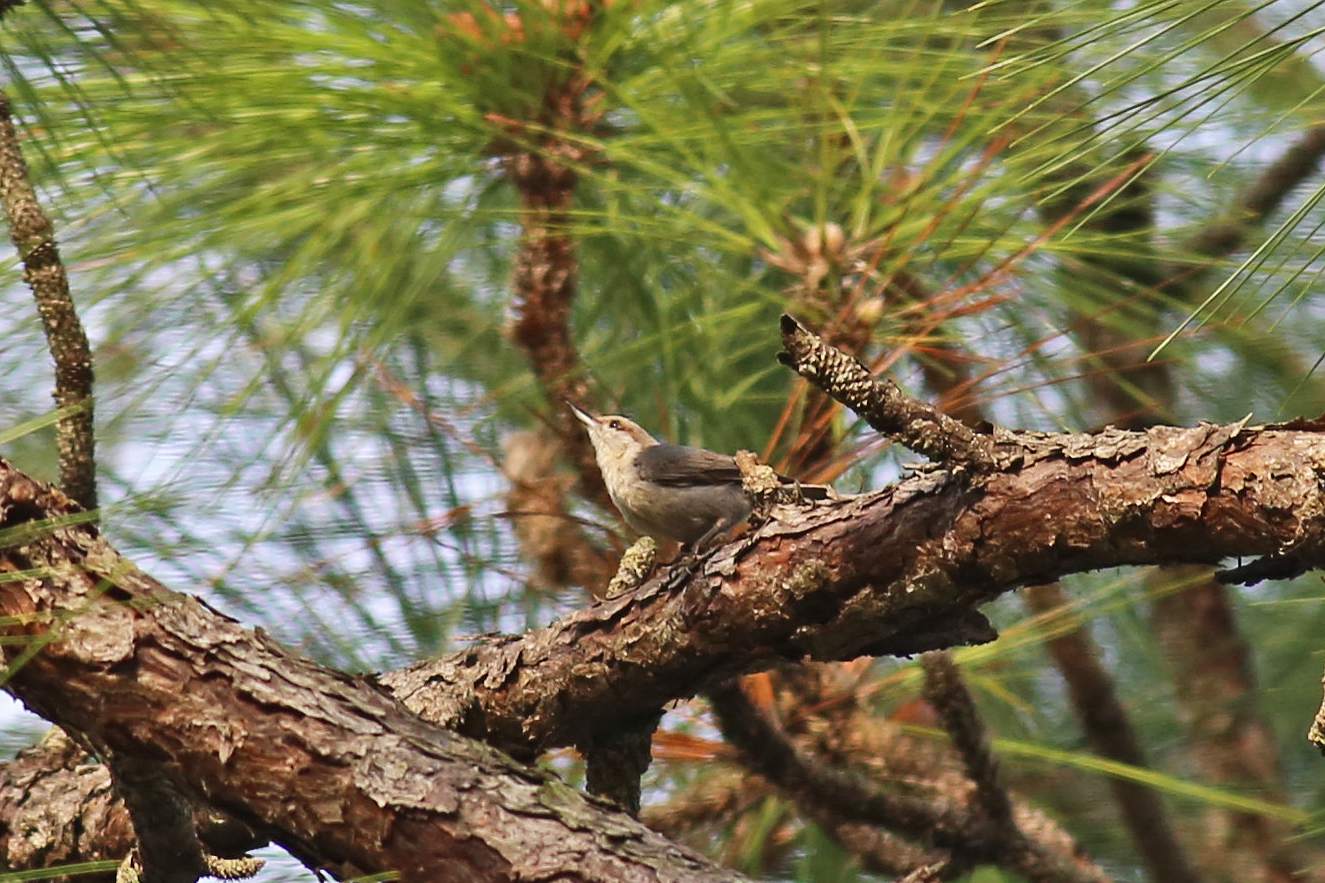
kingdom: Animalia
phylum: Chordata
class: Aves
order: Passeriformes
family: Sittidae
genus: Sitta
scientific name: Sitta pusilla
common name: Brown-headed nuthatch
